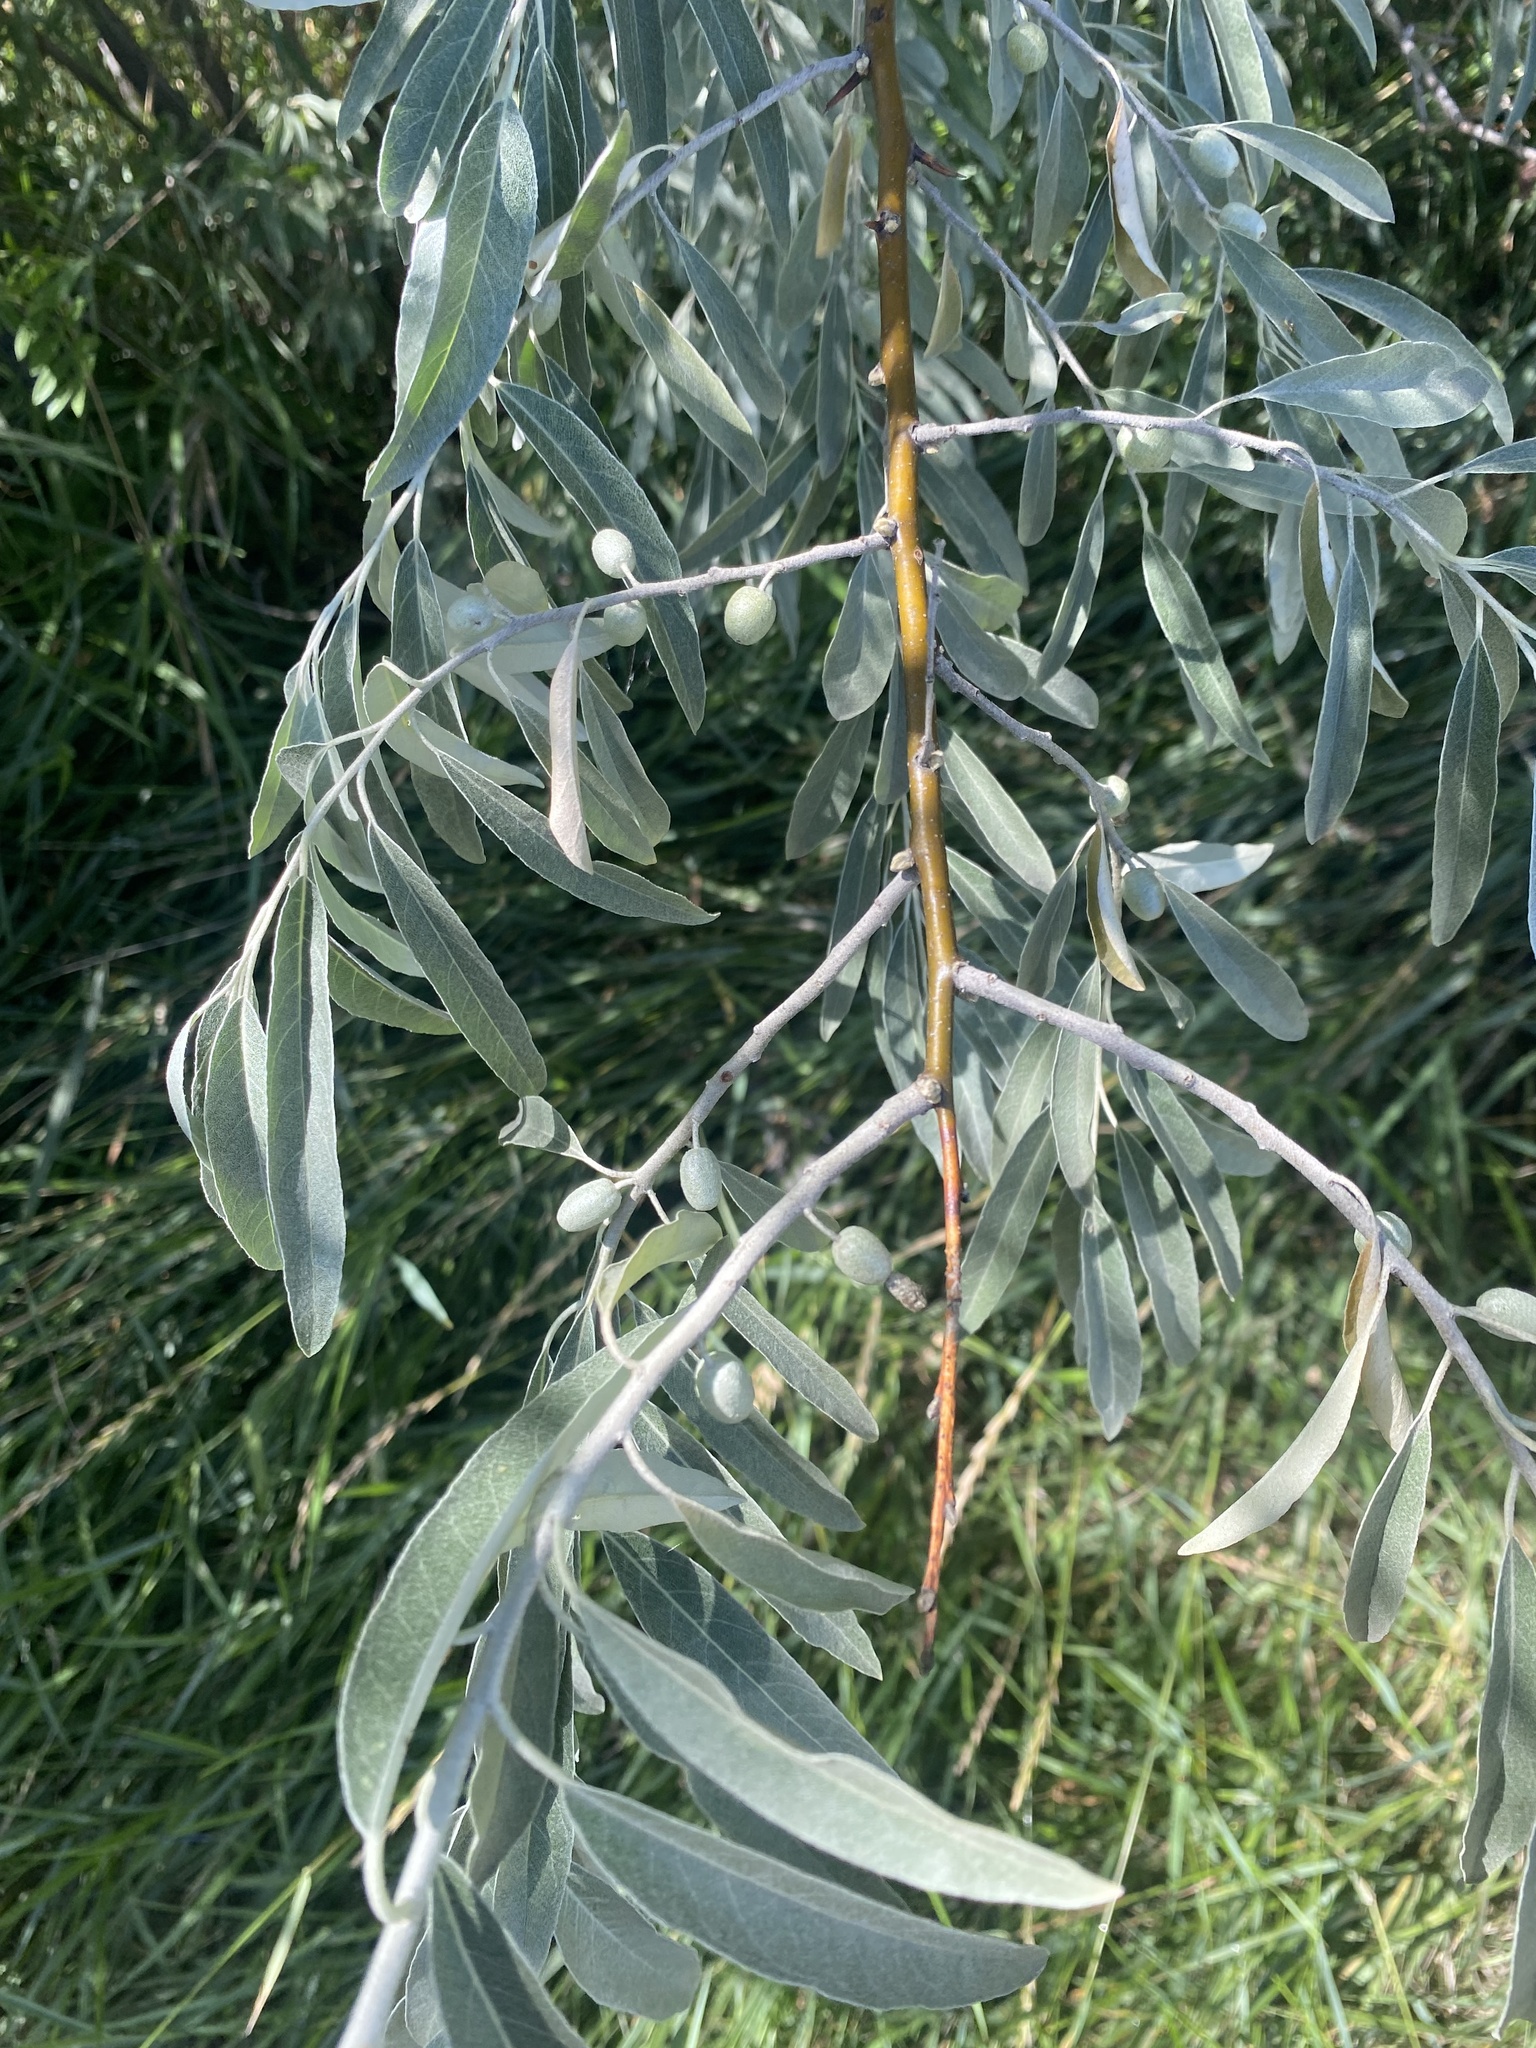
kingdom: Plantae
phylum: Tracheophyta
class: Magnoliopsida
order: Rosales
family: Elaeagnaceae
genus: Elaeagnus
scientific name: Elaeagnus angustifolia
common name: Russian olive
